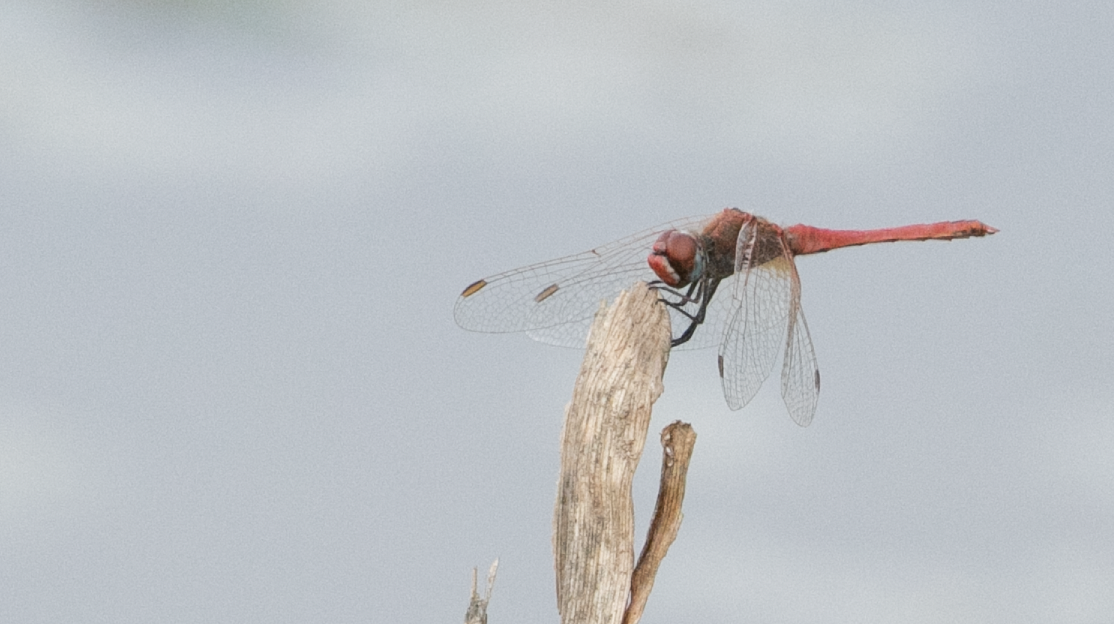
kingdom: Animalia
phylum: Arthropoda
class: Insecta
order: Odonata
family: Libellulidae
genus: Sympetrum
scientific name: Sympetrum fonscolombii
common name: Red-veined darter
